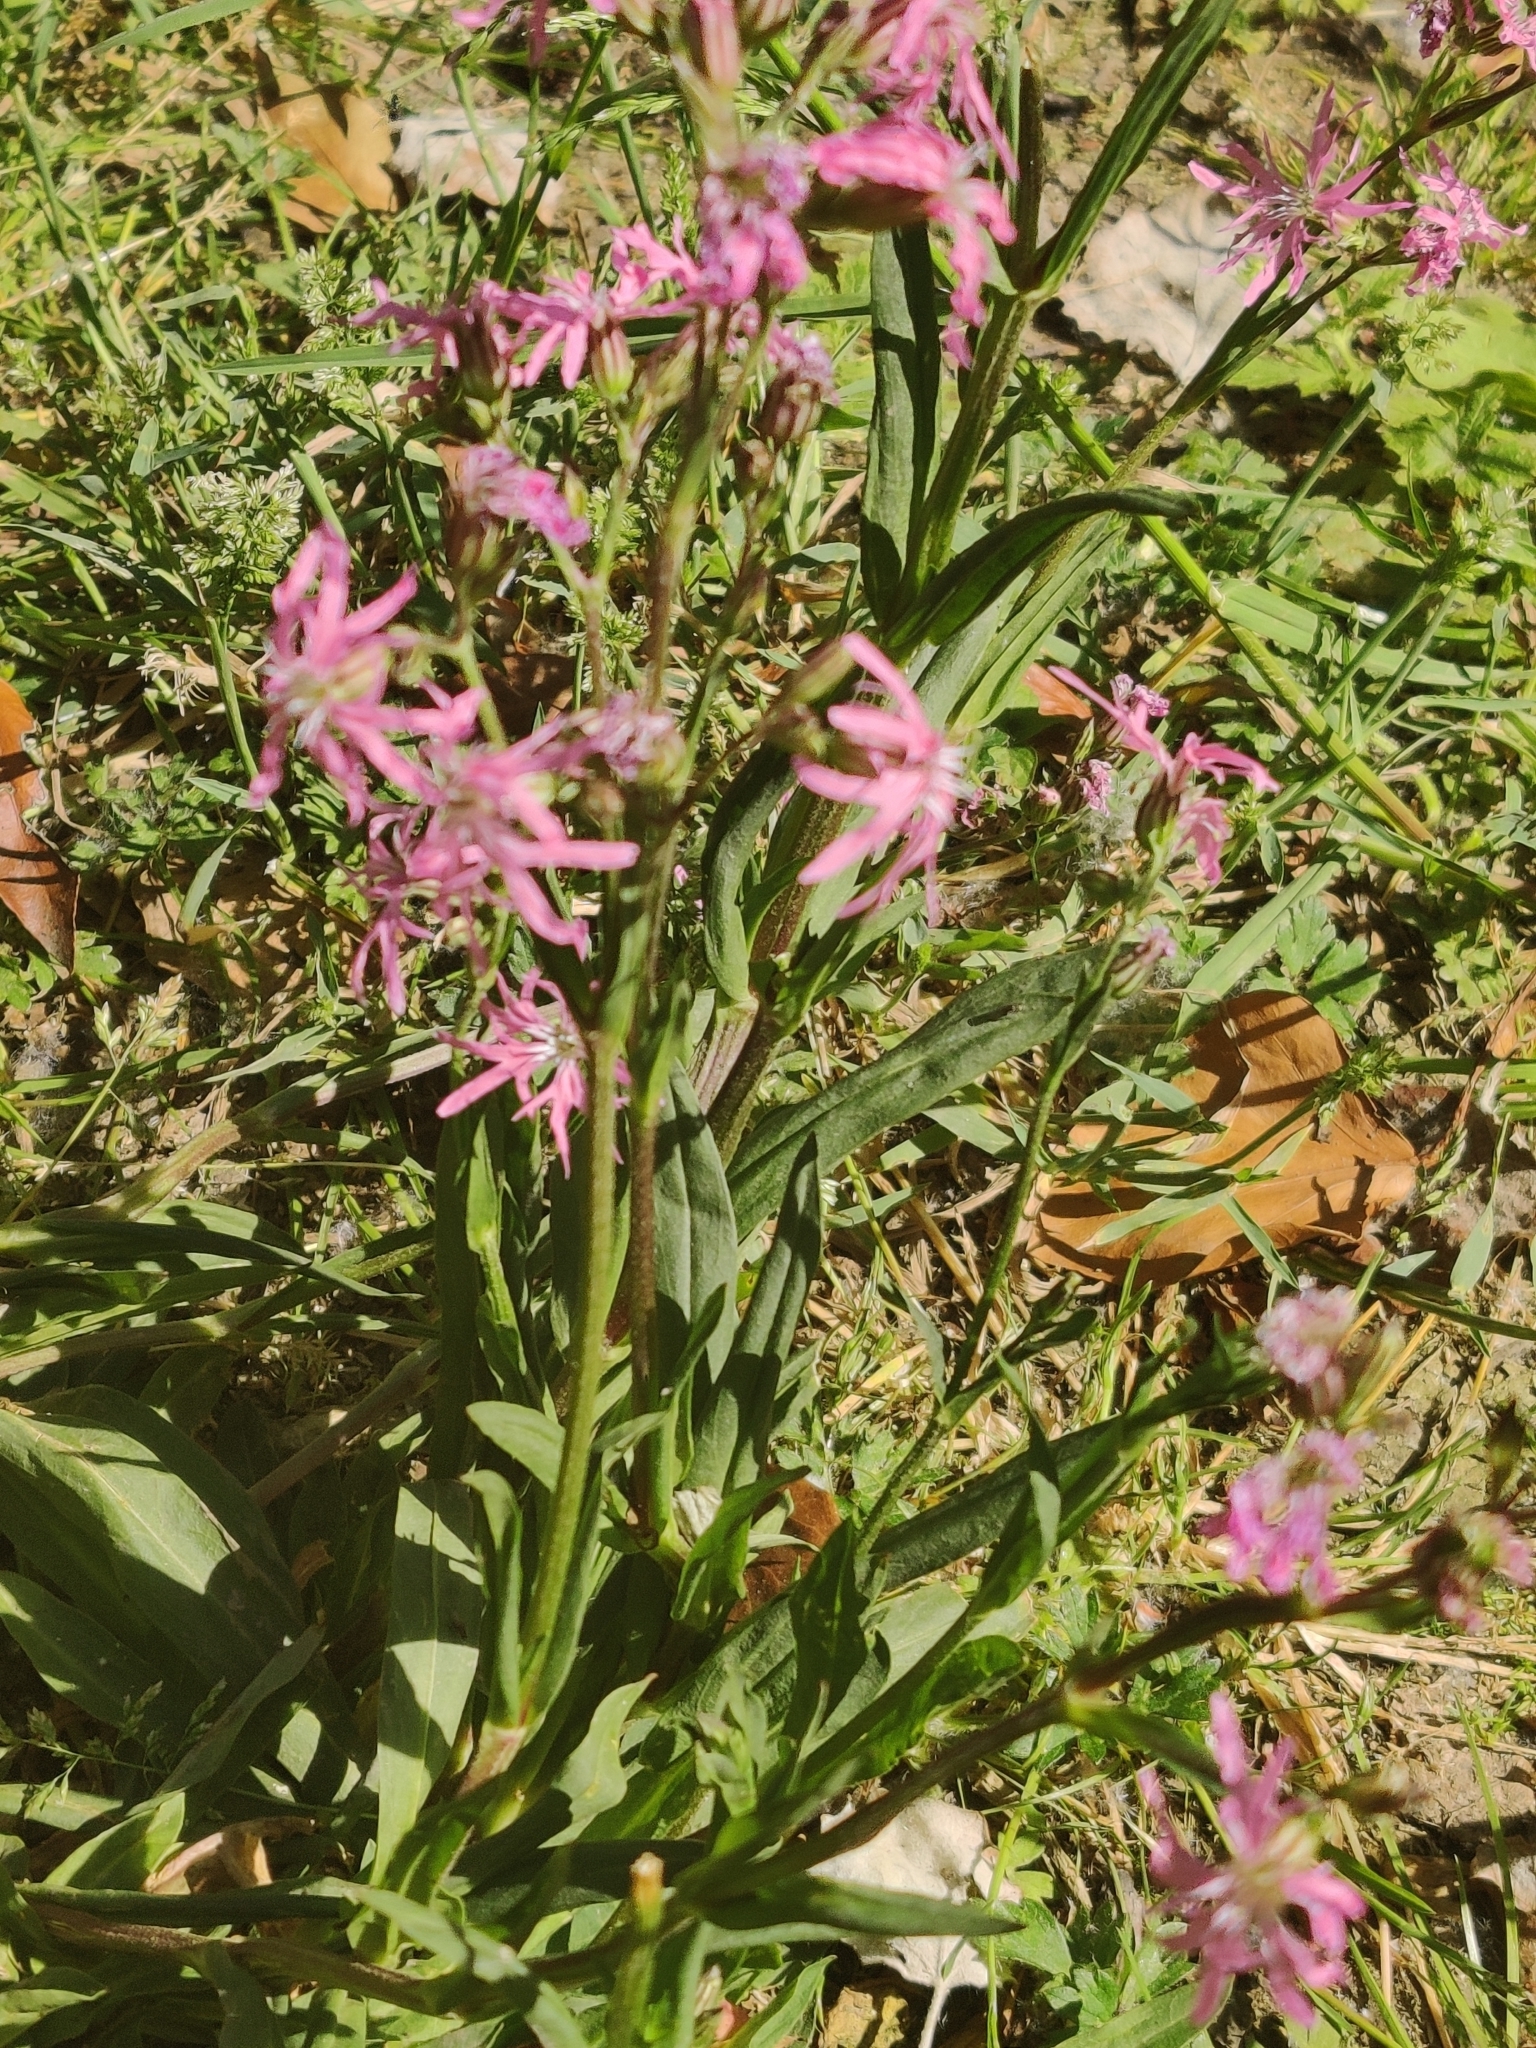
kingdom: Plantae
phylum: Tracheophyta
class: Magnoliopsida
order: Caryophyllales
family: Caryophyllaceae
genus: Silene
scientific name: Silene flos-cuculi
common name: Ragged-robin
